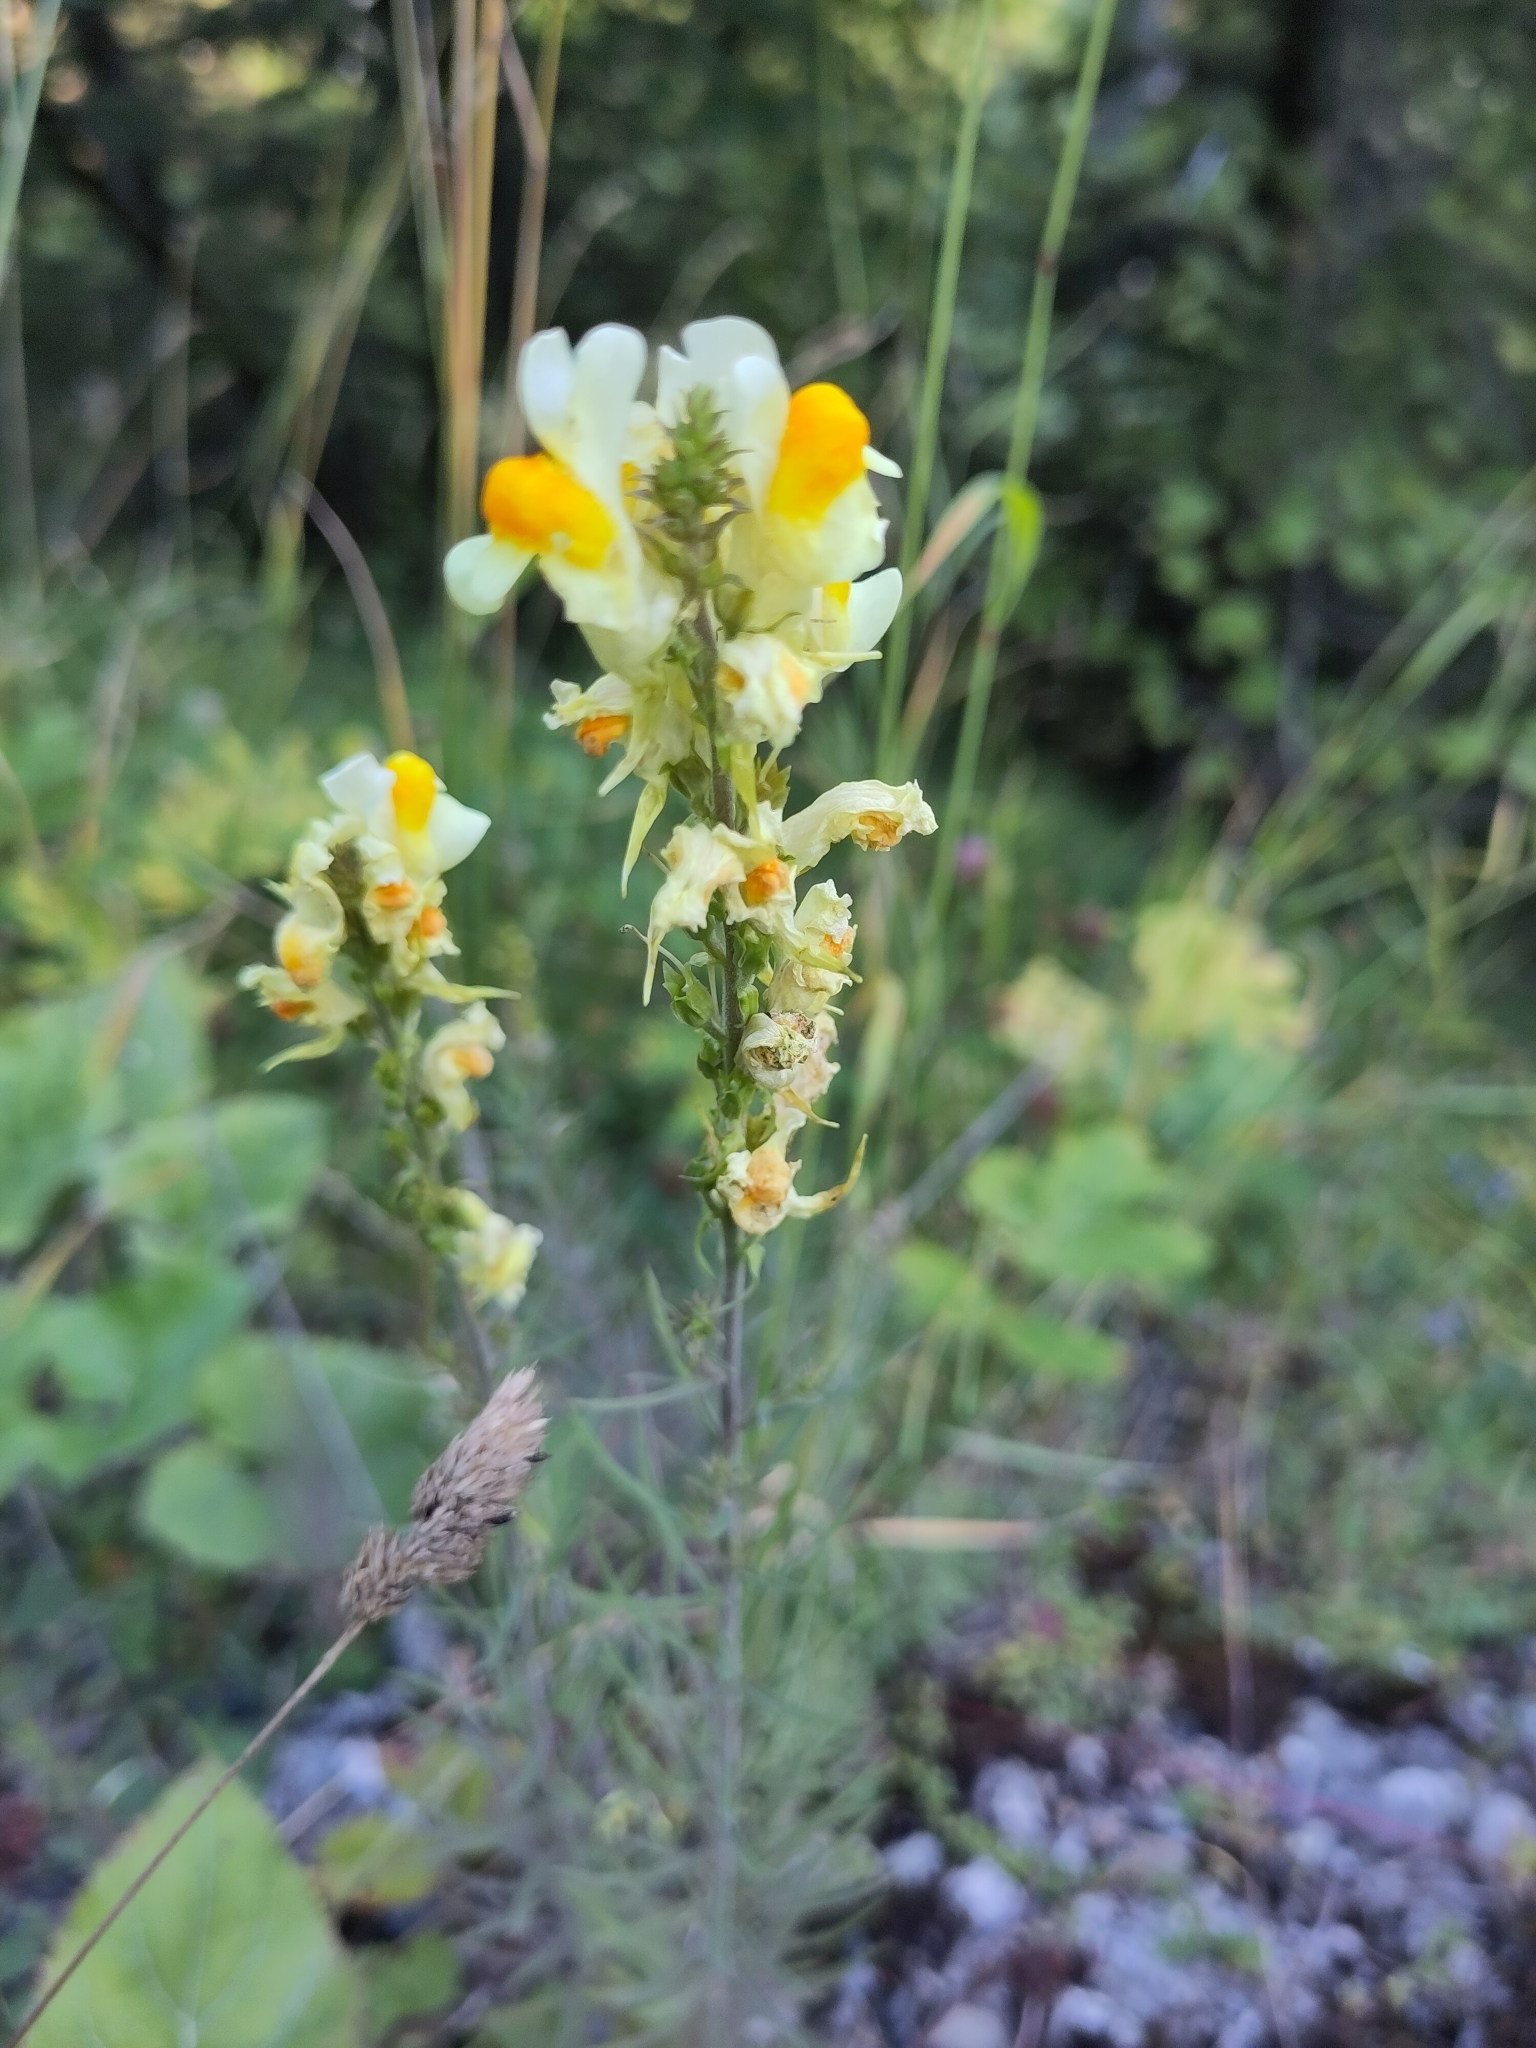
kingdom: Plantae
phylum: Tracheophyta
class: Magnoliopsida
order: Lamiales
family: Plantaginaceae
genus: Linaria
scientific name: Linaria vulgaris
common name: Butter and eggs
